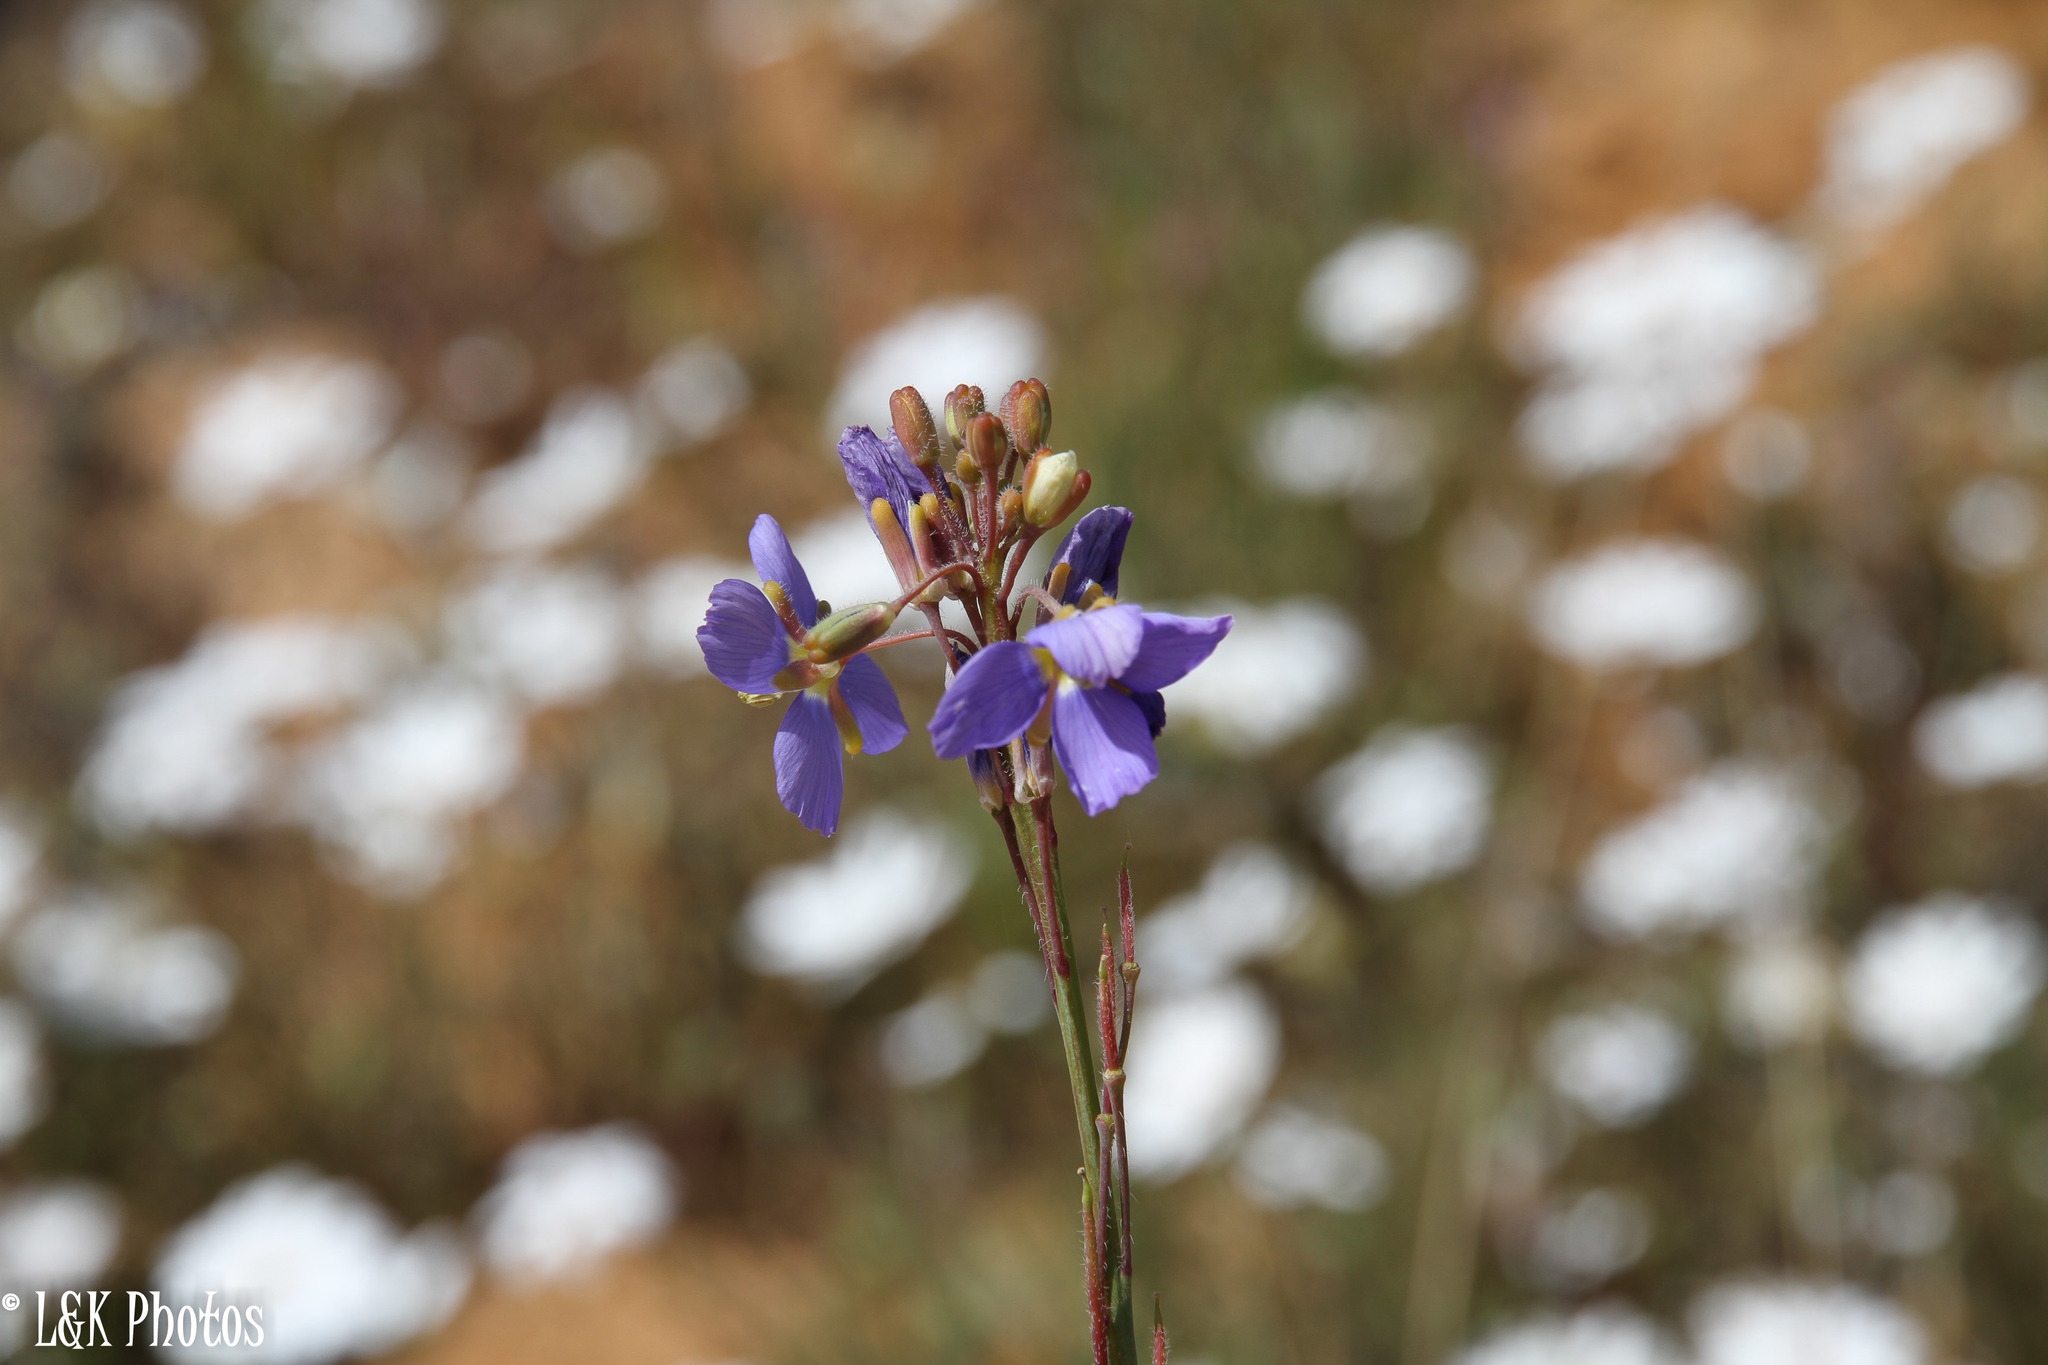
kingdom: Plantae
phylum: Tracheophyta
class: Magnoliopsida
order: Brassicales
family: Brassicaceae
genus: Heliophila
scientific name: Heliophila africana
